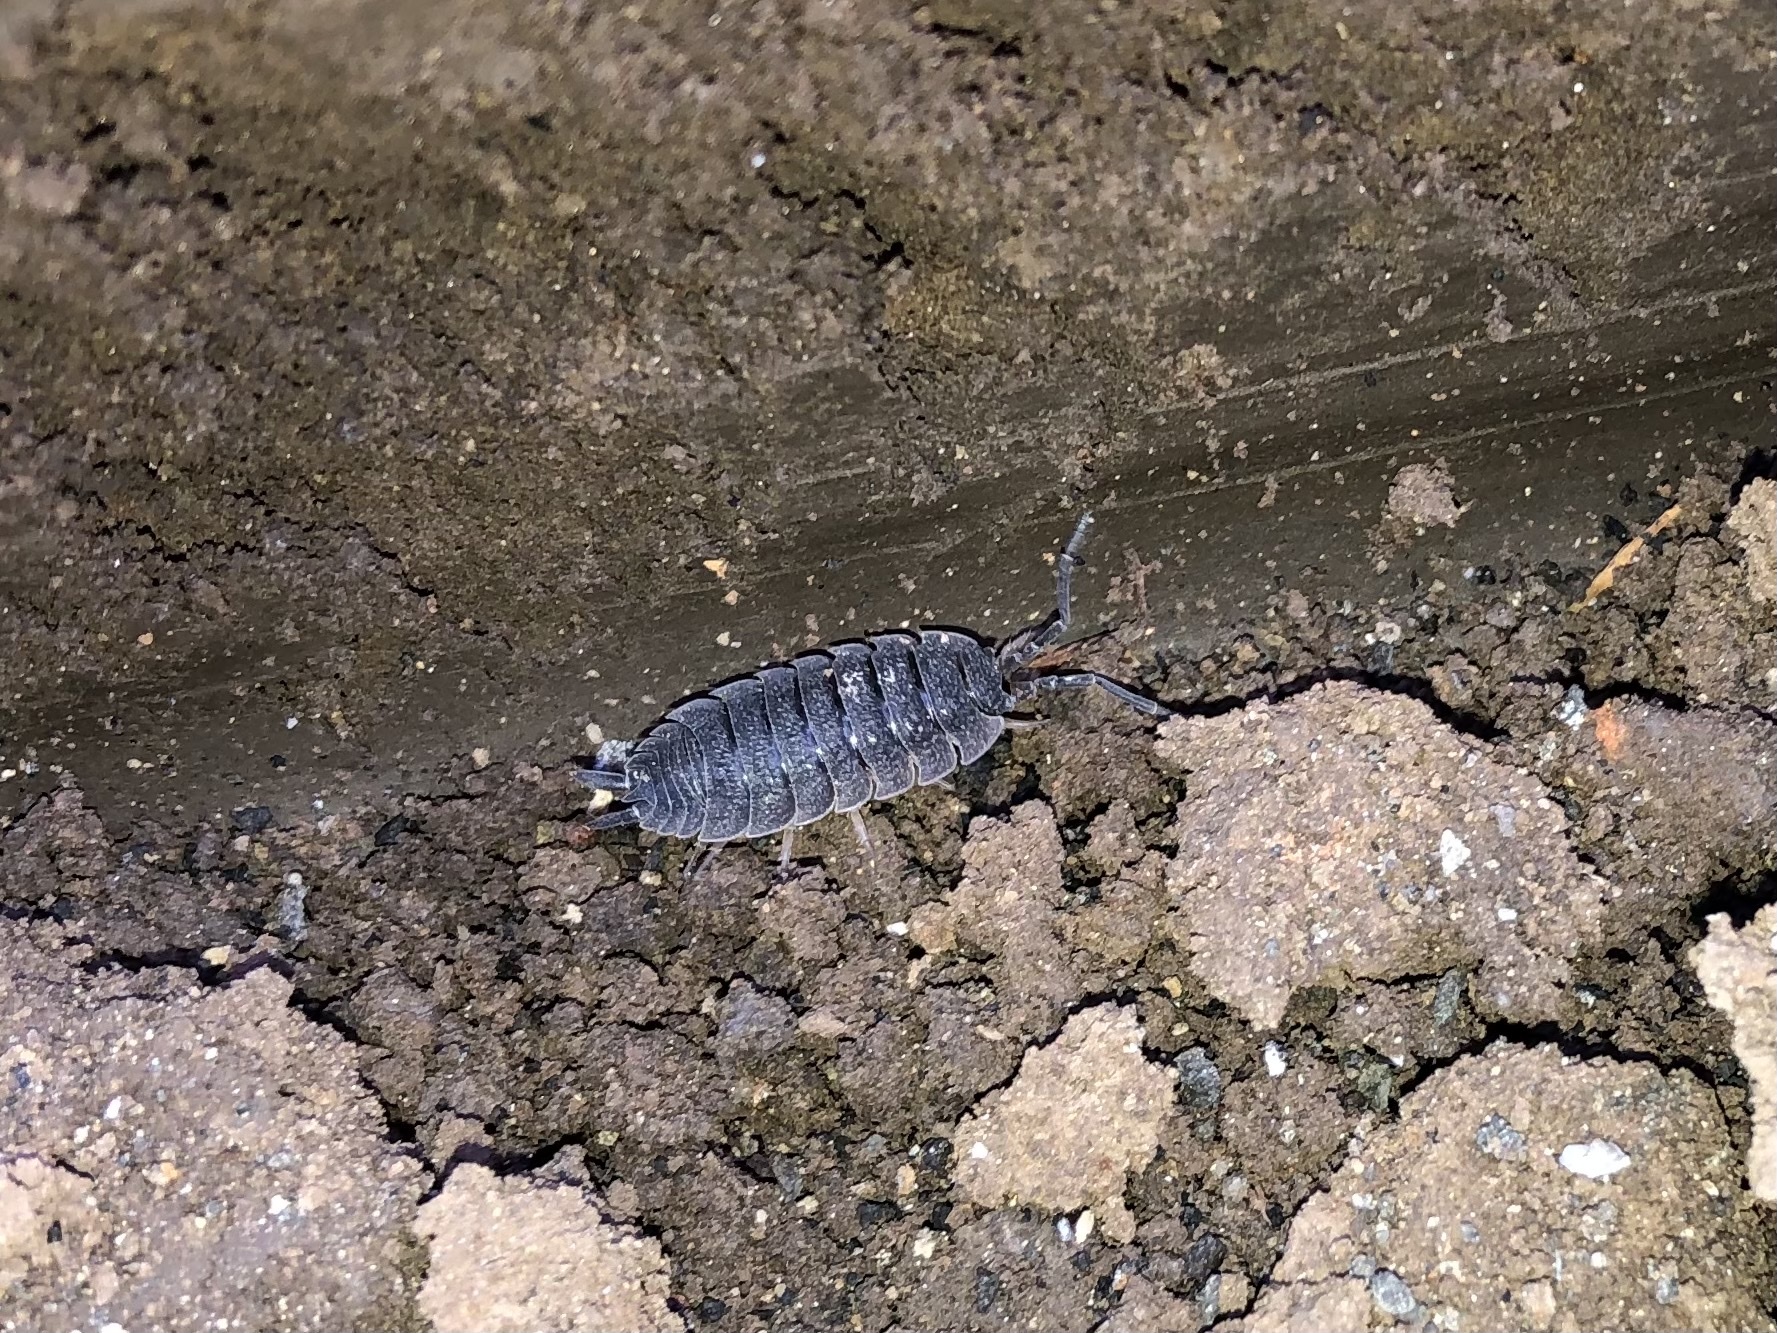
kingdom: Animalia
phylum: Arthropoda
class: Malacostraca
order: Isopoda
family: Porcellionidae
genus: Porcellio
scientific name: Porcellio scaber
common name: Common rough woodlouse
